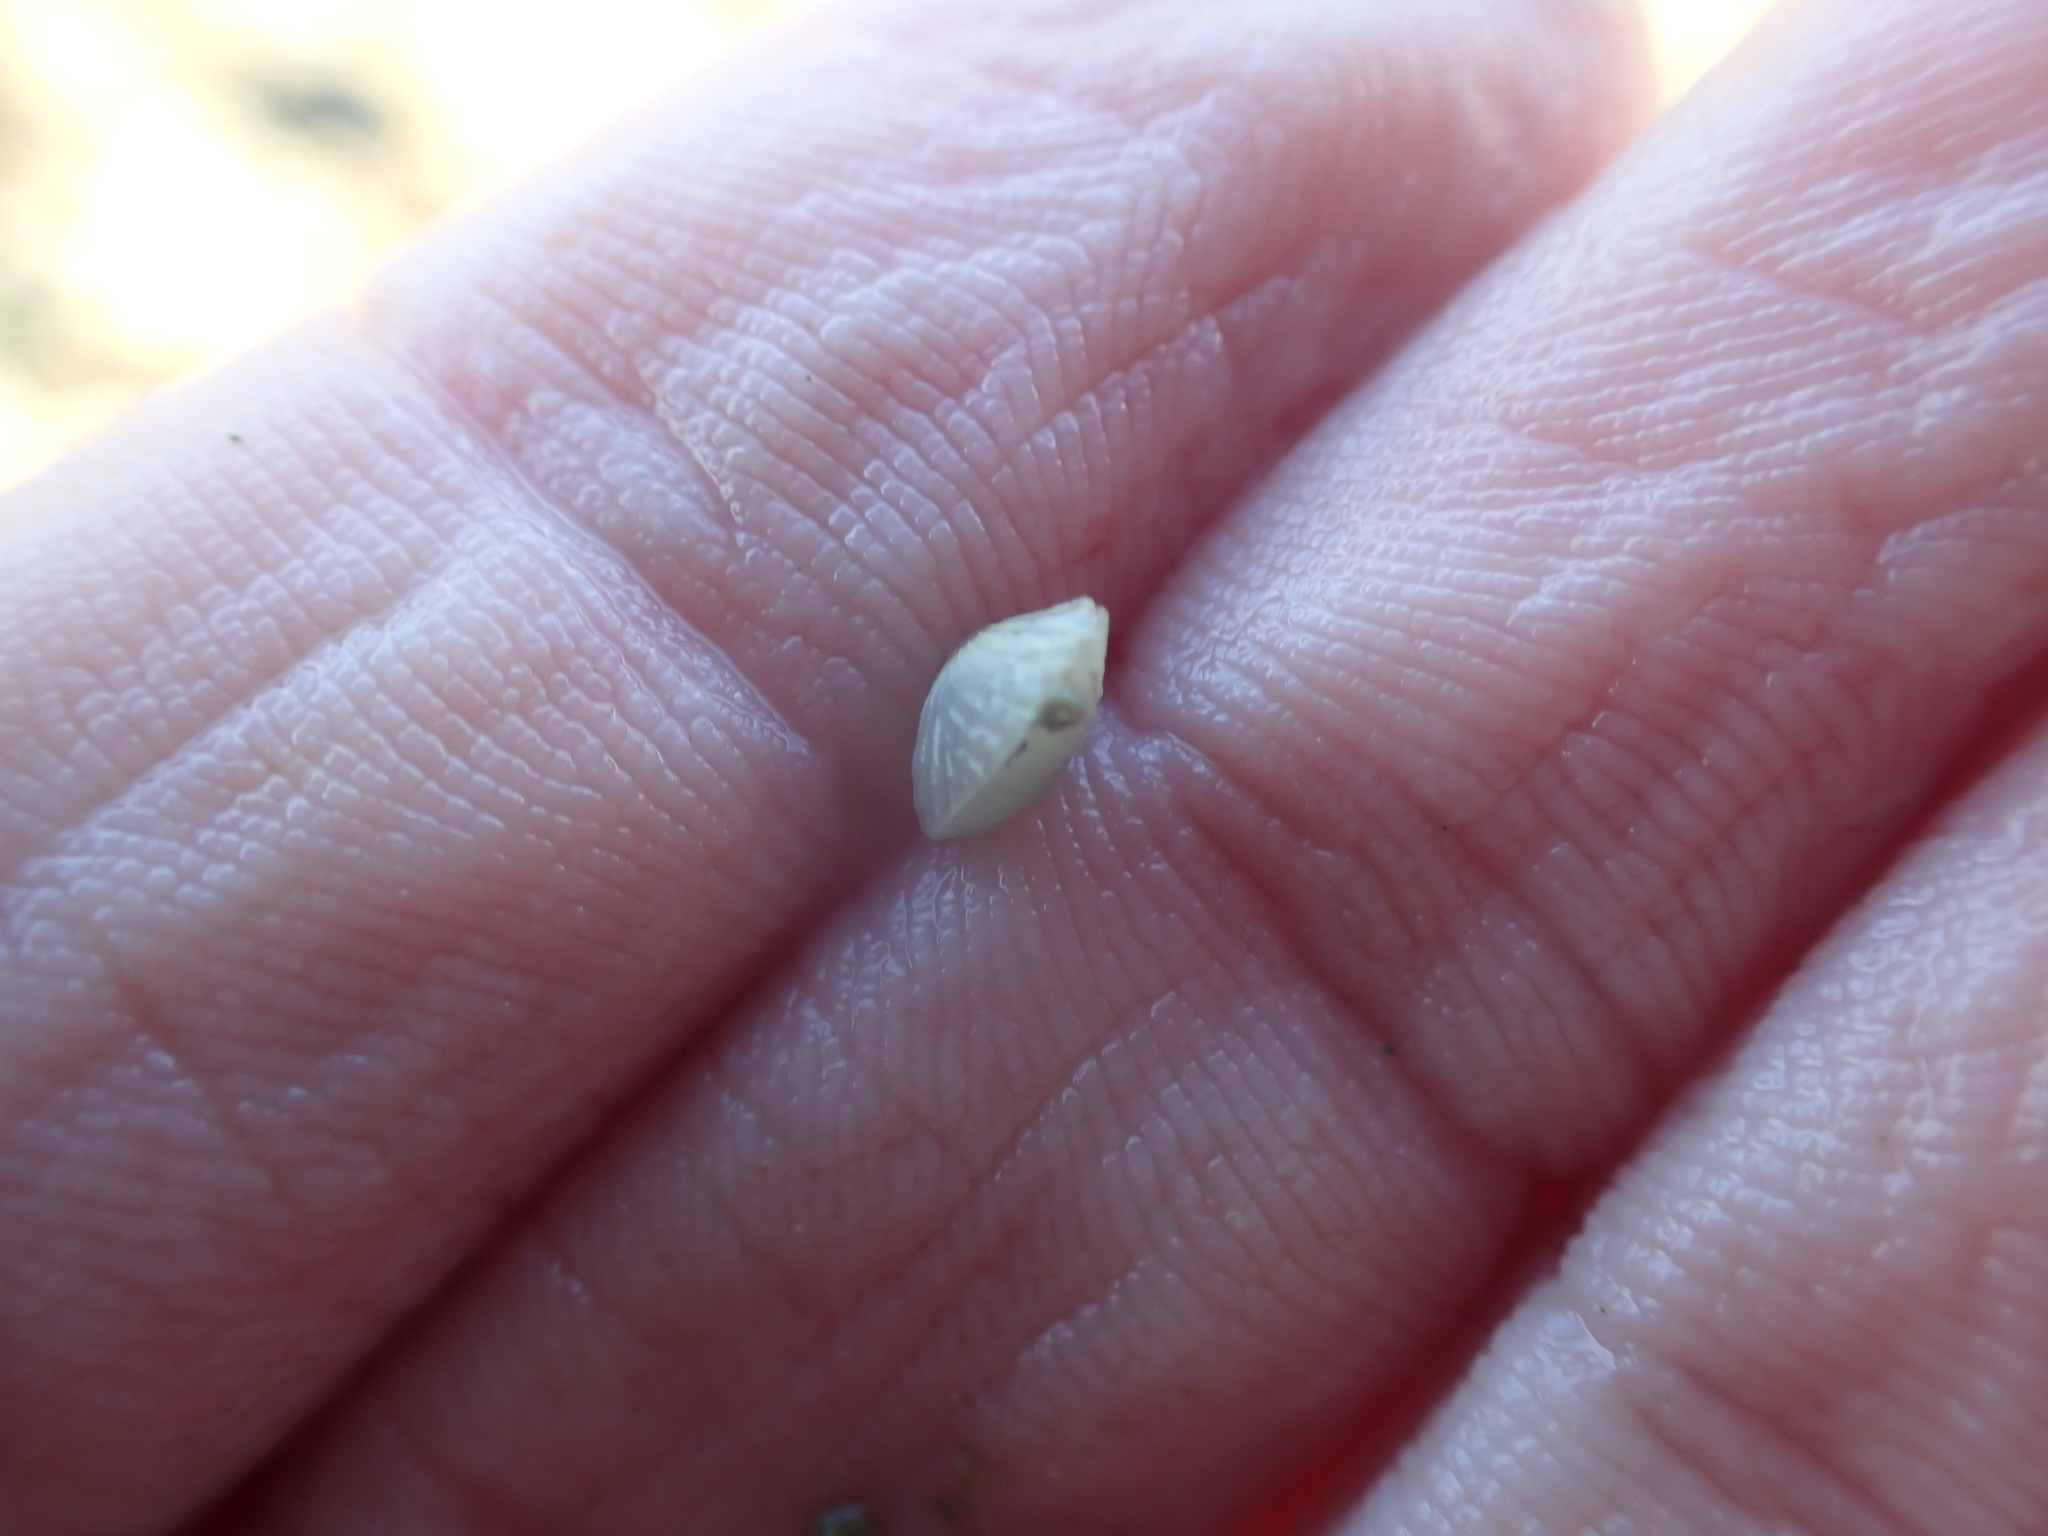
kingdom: Animalia
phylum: Mollusca
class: Bivalvia
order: Galeommatida
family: Lasaeidae
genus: Myllita
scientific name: Myllita stowei
